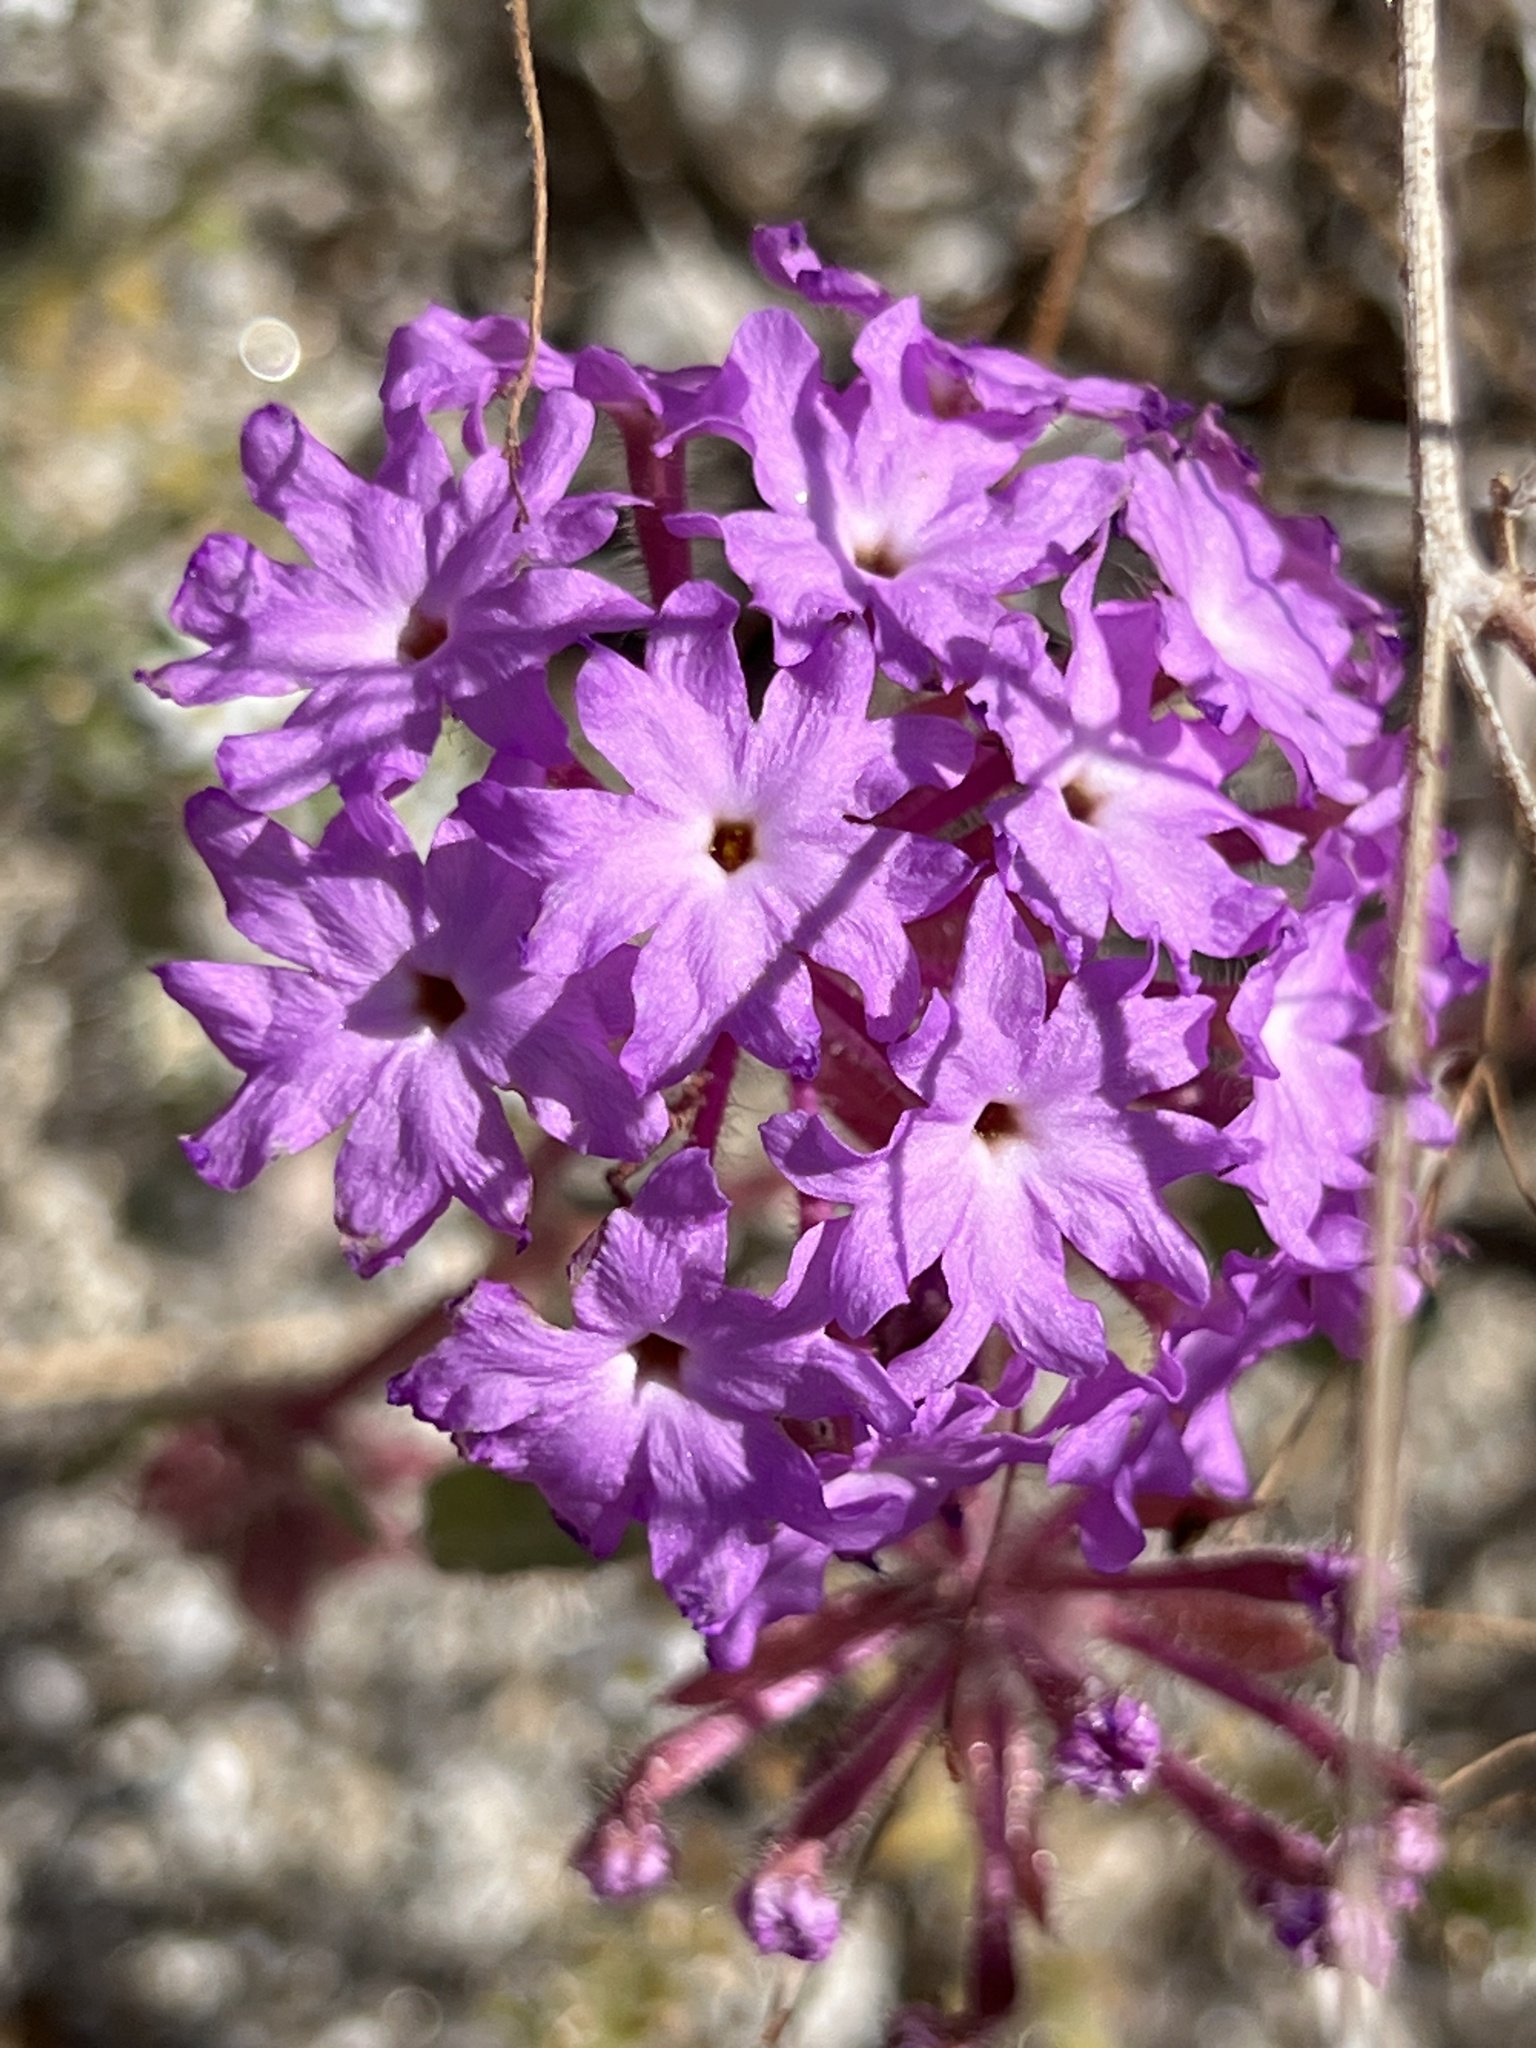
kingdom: Plantae
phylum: Tracheophyta
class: Magnoliopsida
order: Caryophyllales
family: Nyctaginaceae
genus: Abronia
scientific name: Abronia villosa
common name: Desert sand-verbena
